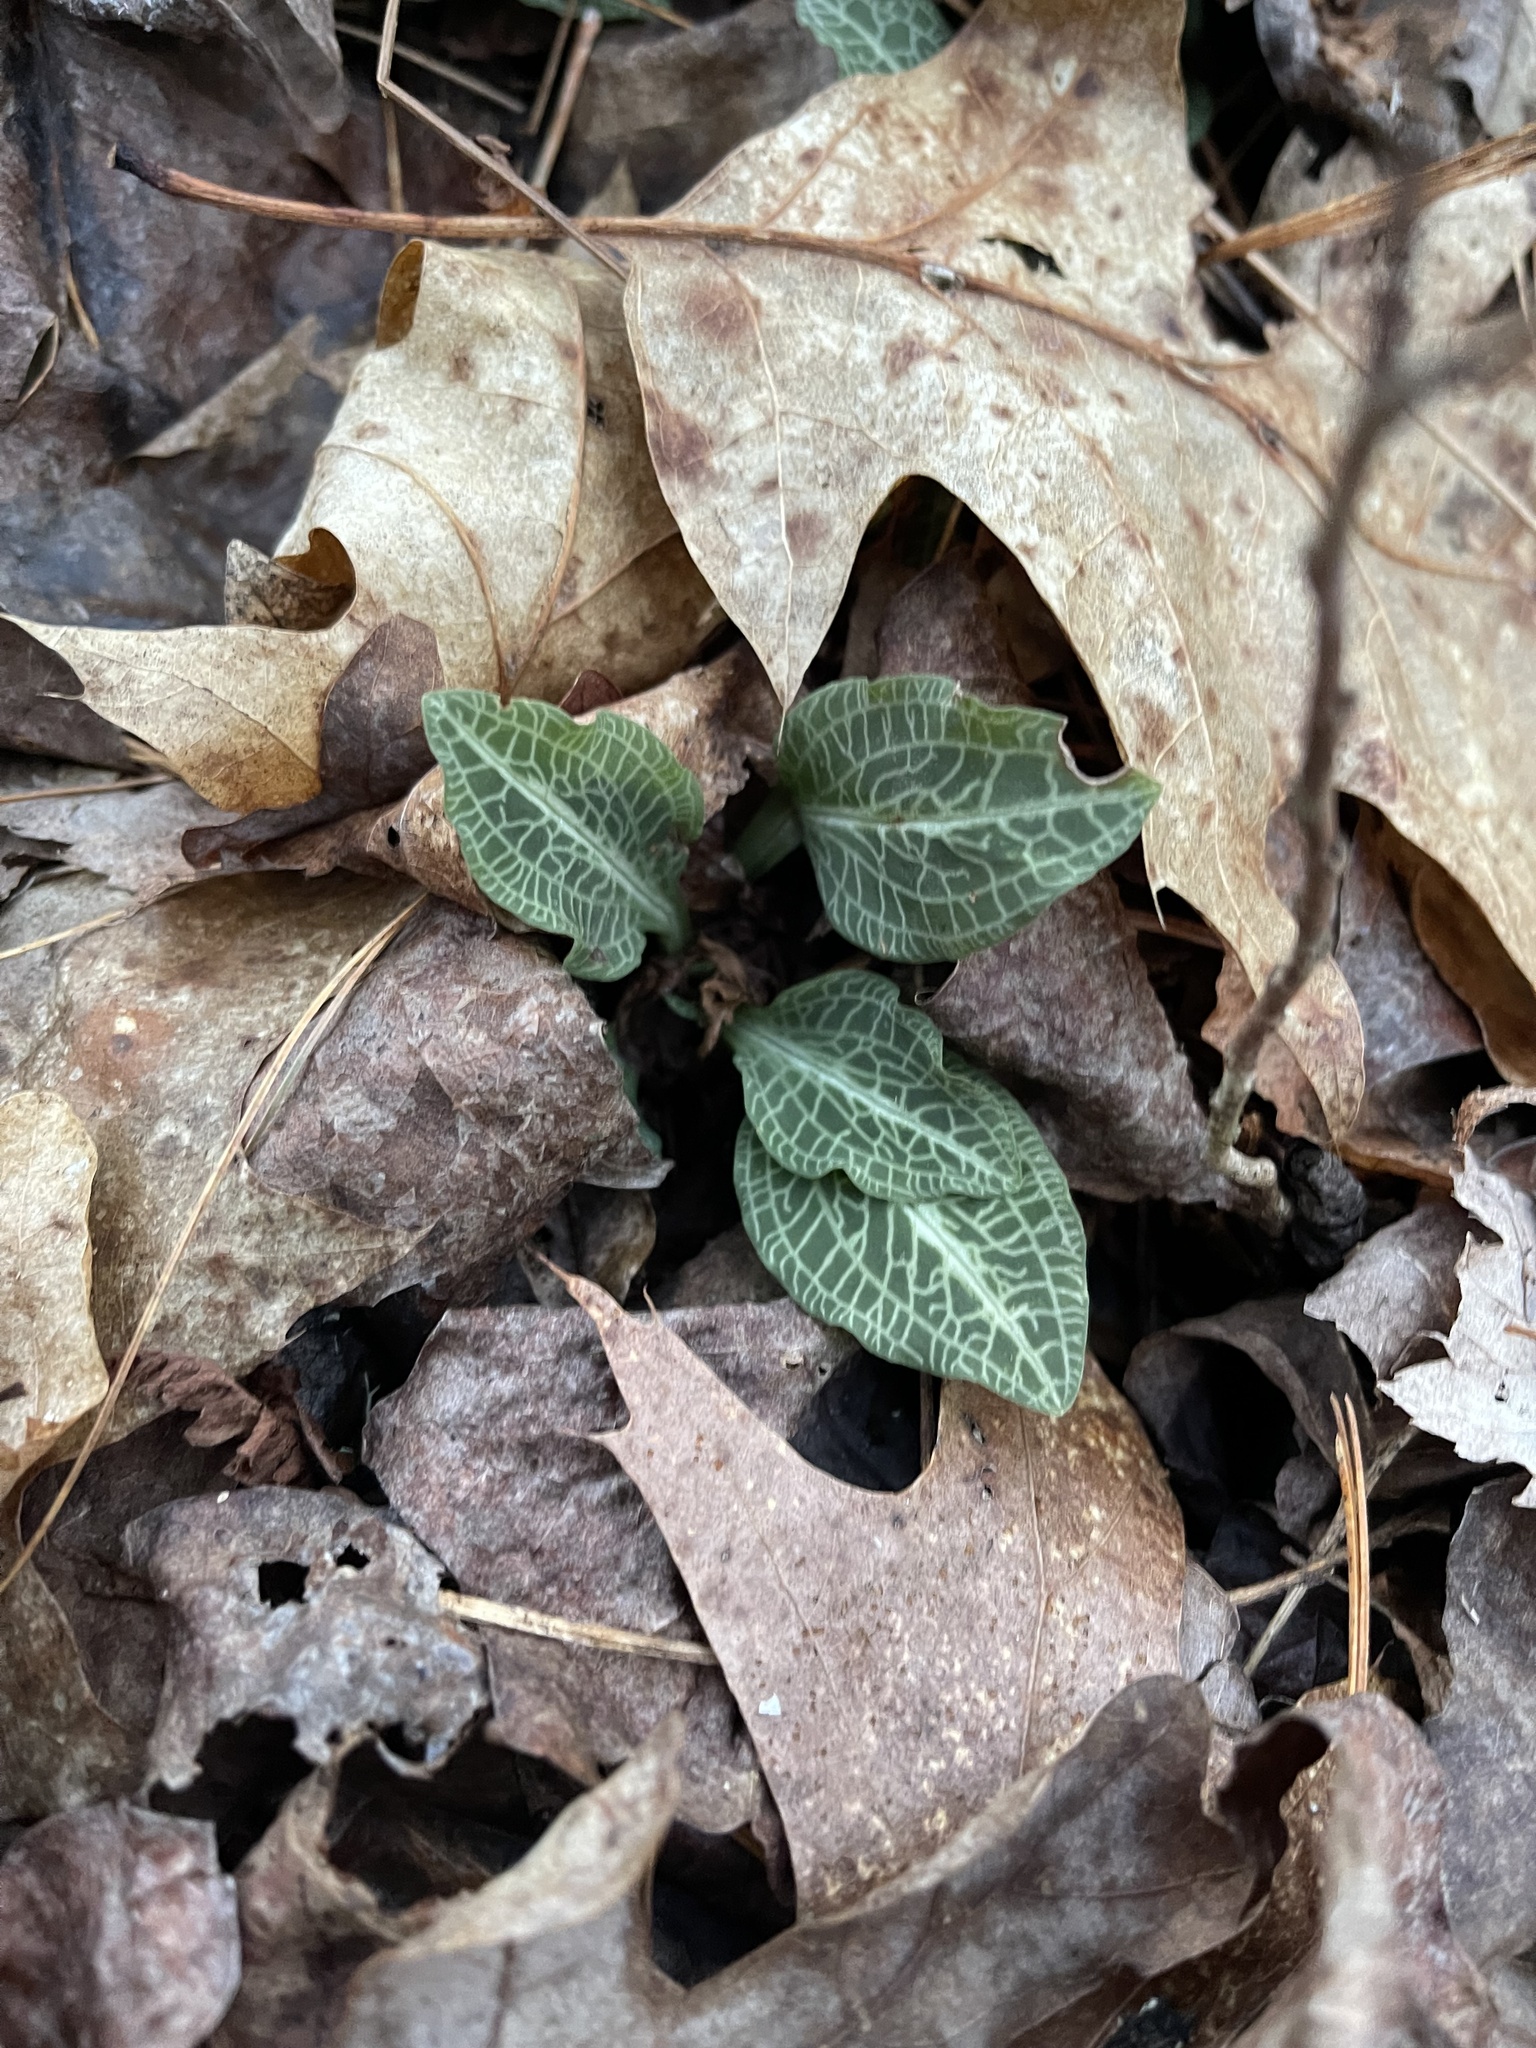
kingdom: Plantae
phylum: Tracheophyta
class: Liliopsida
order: Asparagales
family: Orchidaceae
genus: Goodyera
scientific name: Goodyera pubescens
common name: Downy rattlesnake-plantain
